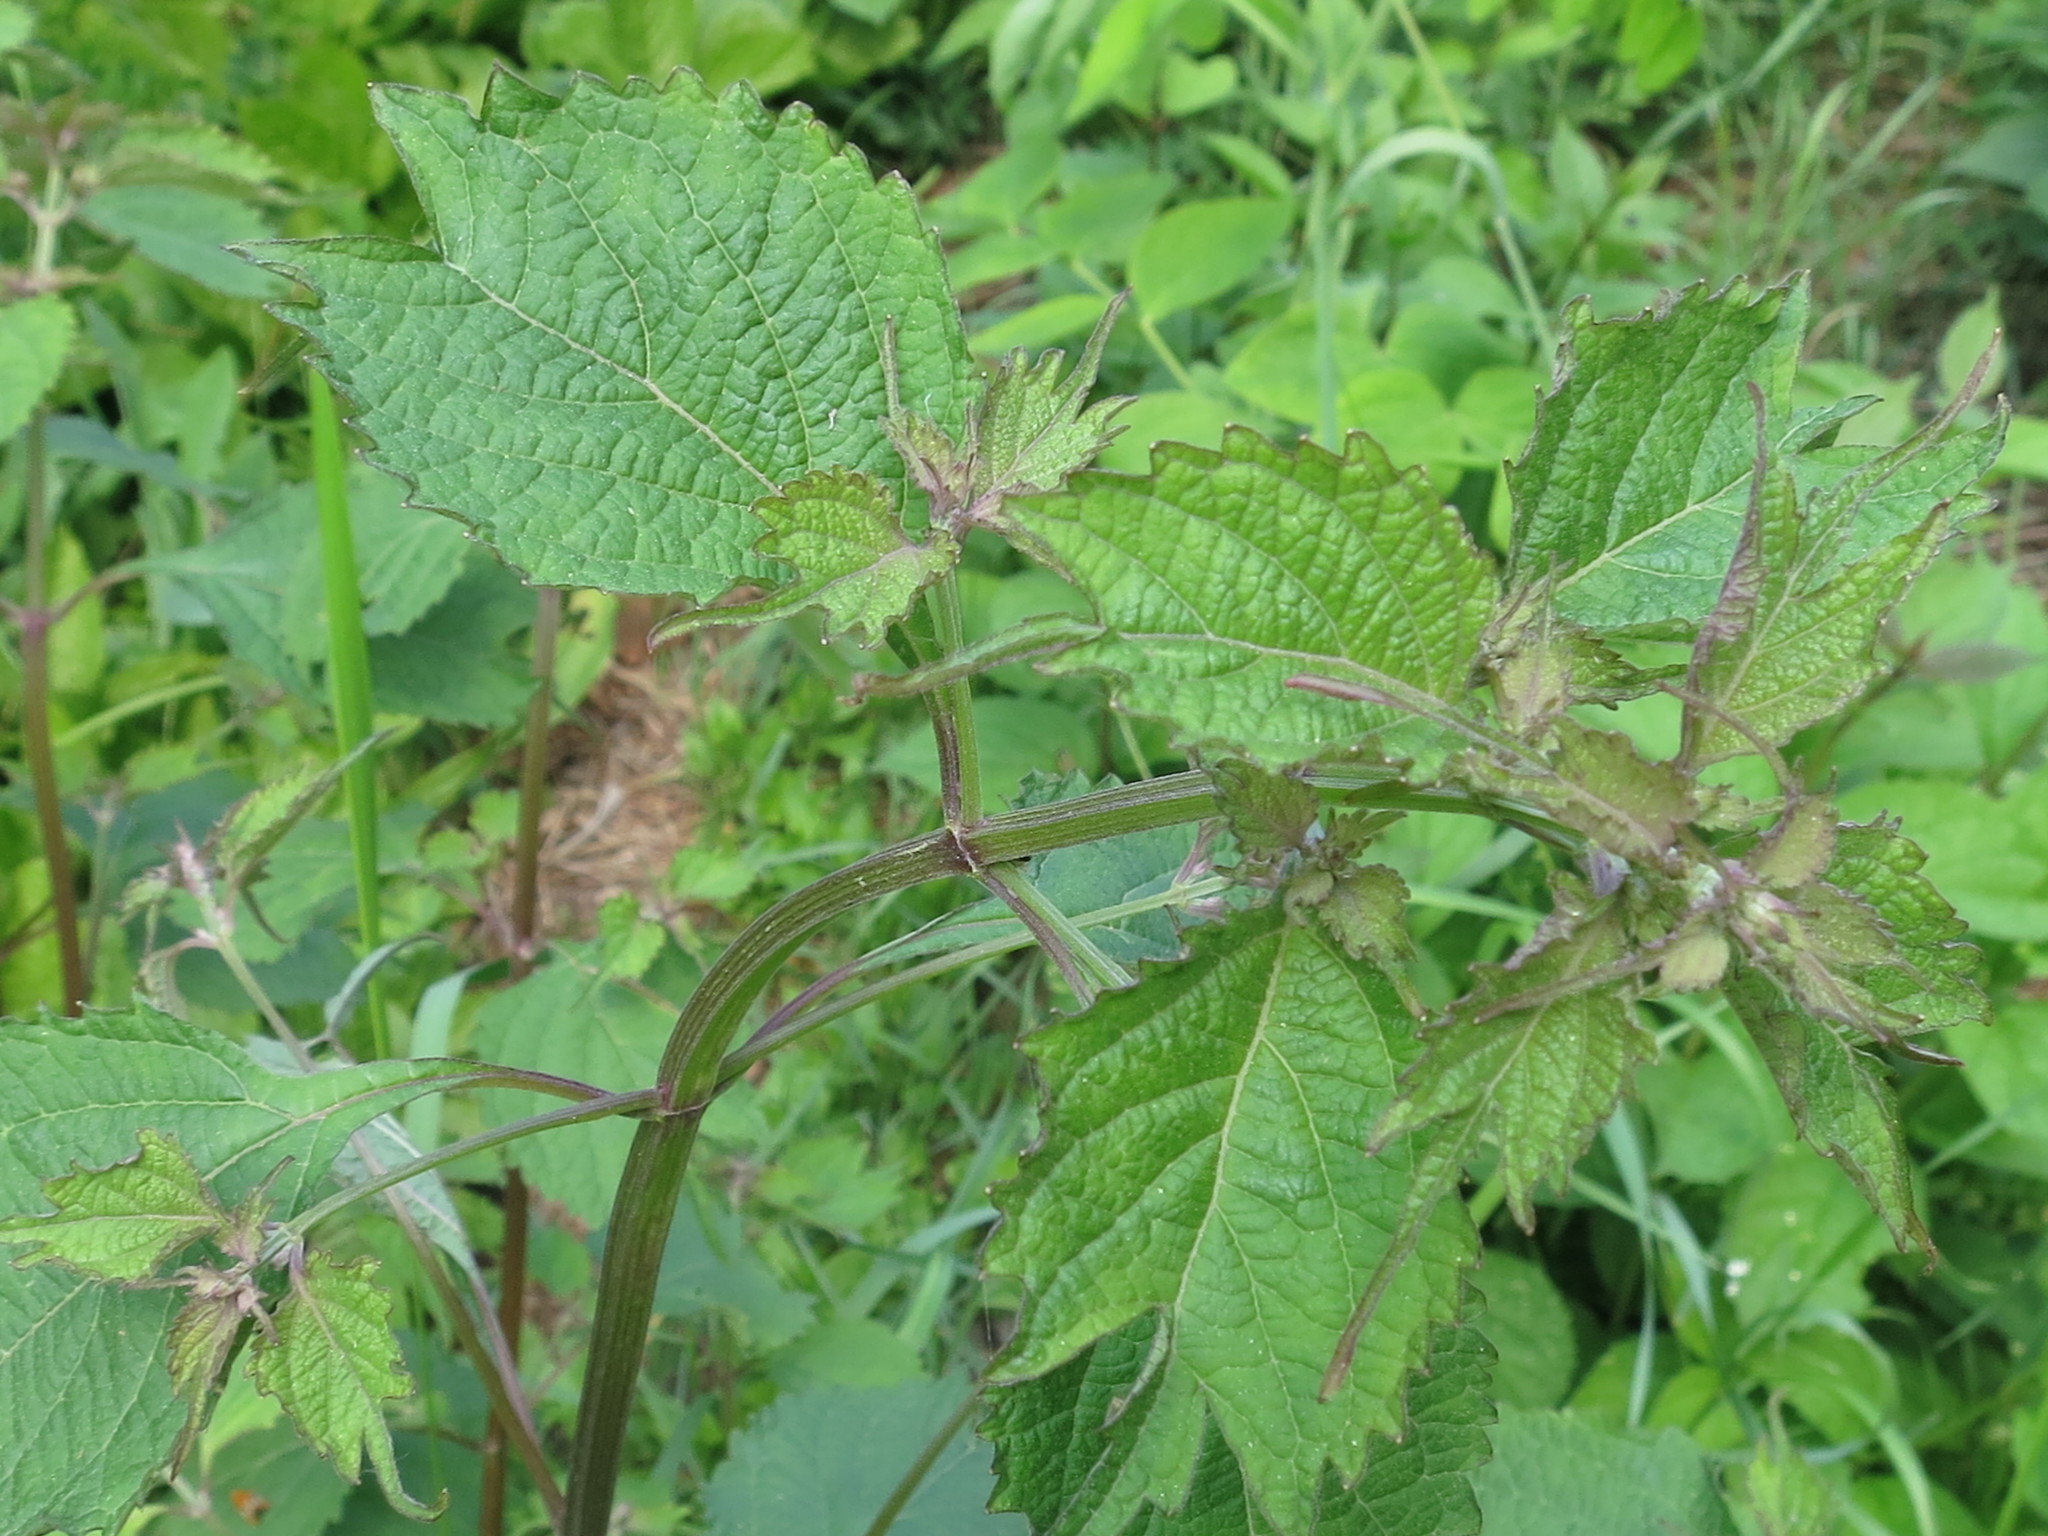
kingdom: Plantae
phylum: Tracheophyta
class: Magnoliopsida
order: Lamiales
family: Lamiaceae
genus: Isodon
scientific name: Isodon excisus
